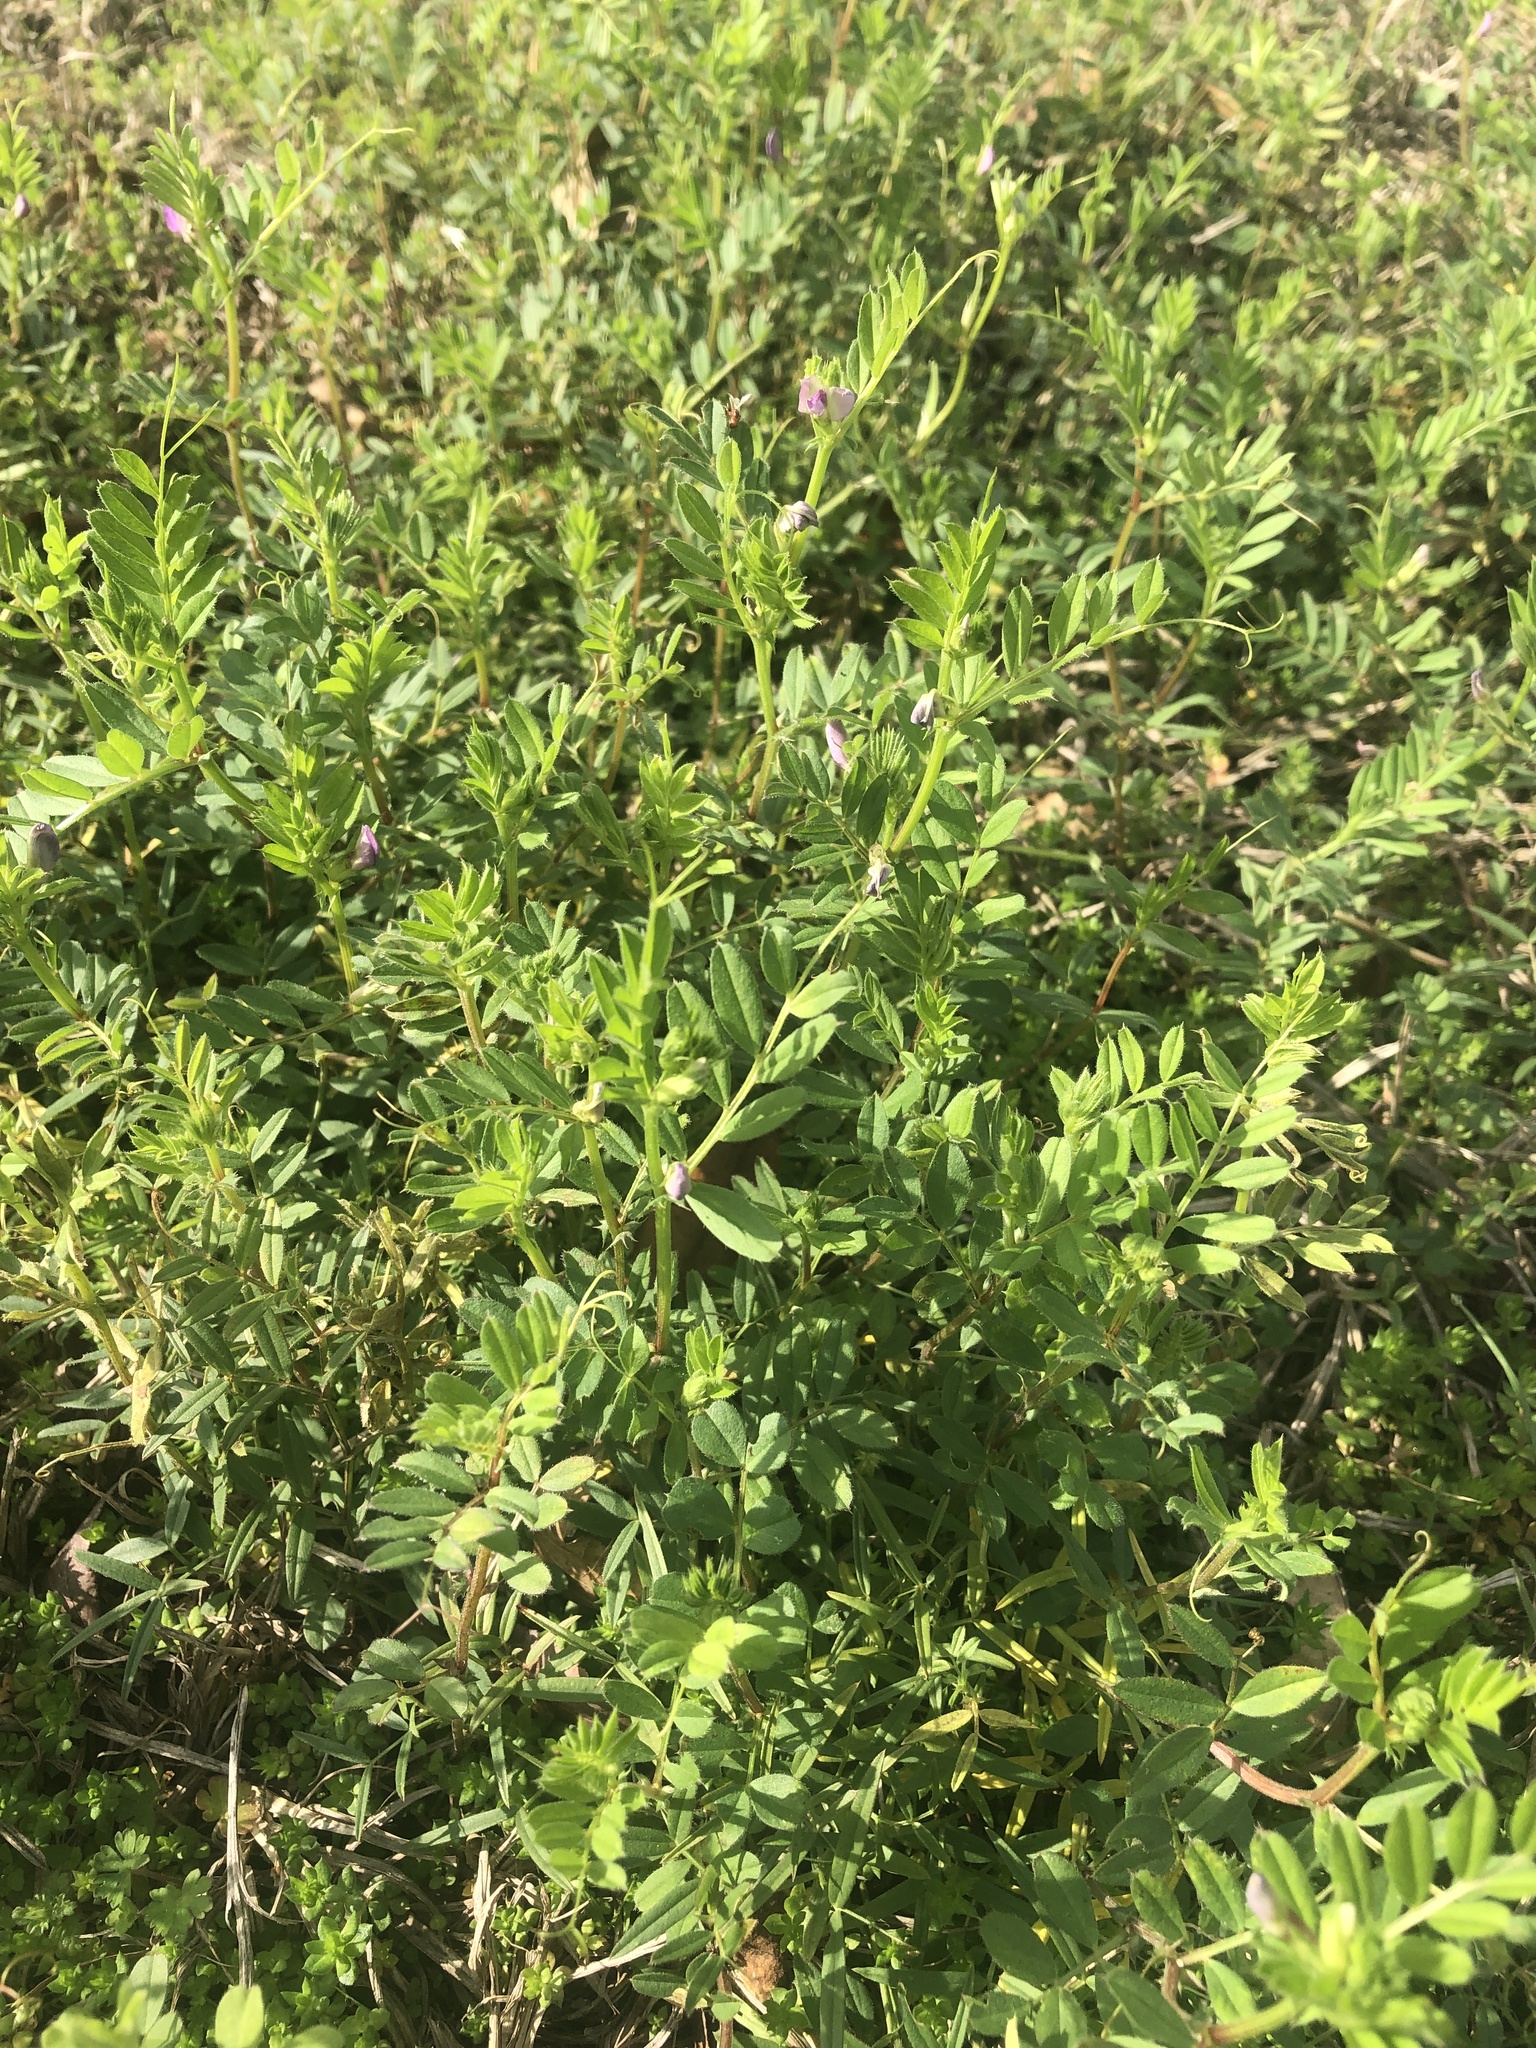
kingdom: Plantae
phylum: Tracheophyta
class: Magnoliopsida
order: Fabales
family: Fabaceae
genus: Vicia
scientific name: Vicia sativa
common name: Garden vetch
